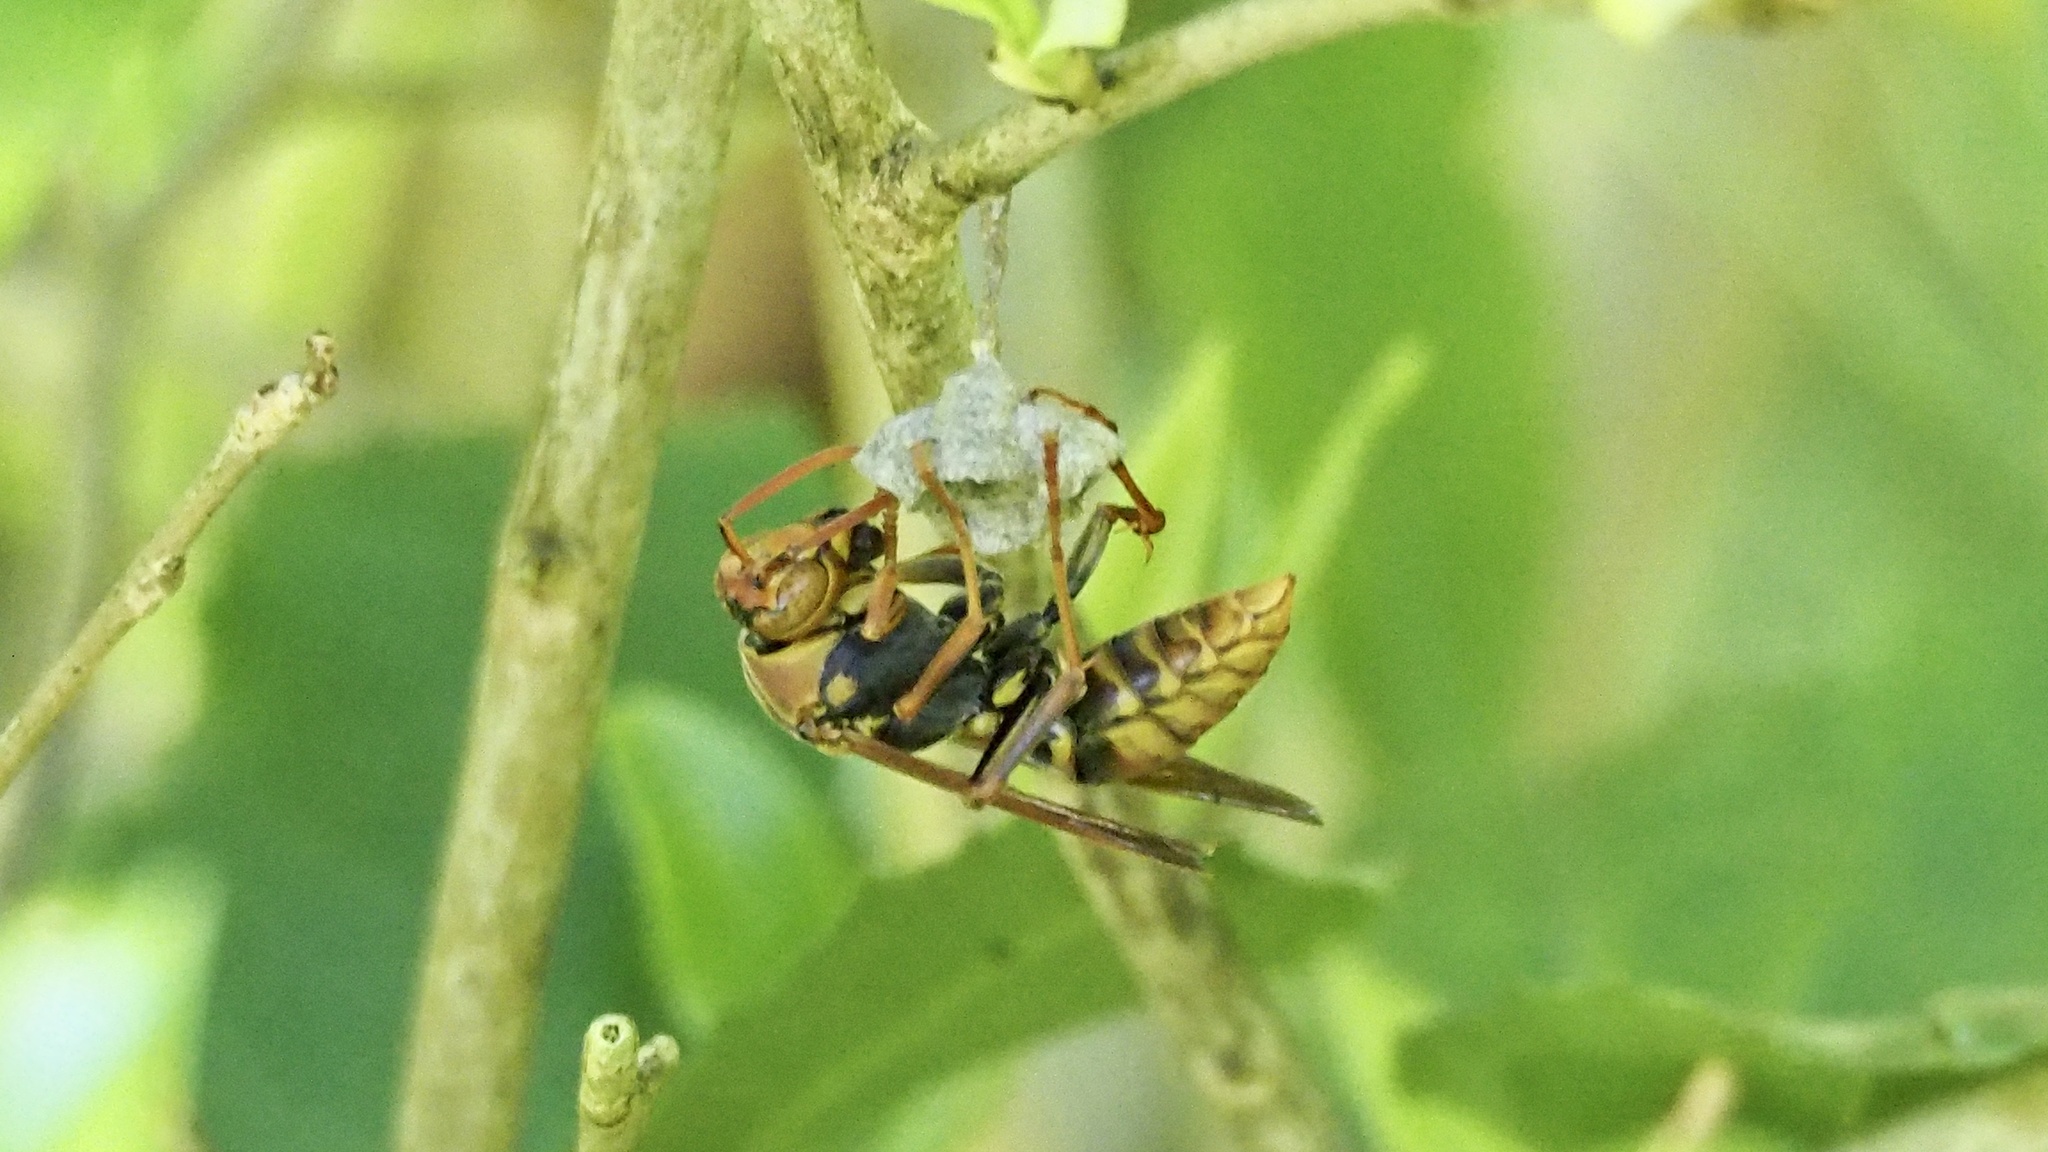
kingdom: Animalia
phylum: Arthropoda
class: Insecta
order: Hymenoptera
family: Eumenidae
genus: Polistes
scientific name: Polistes rothneyi
